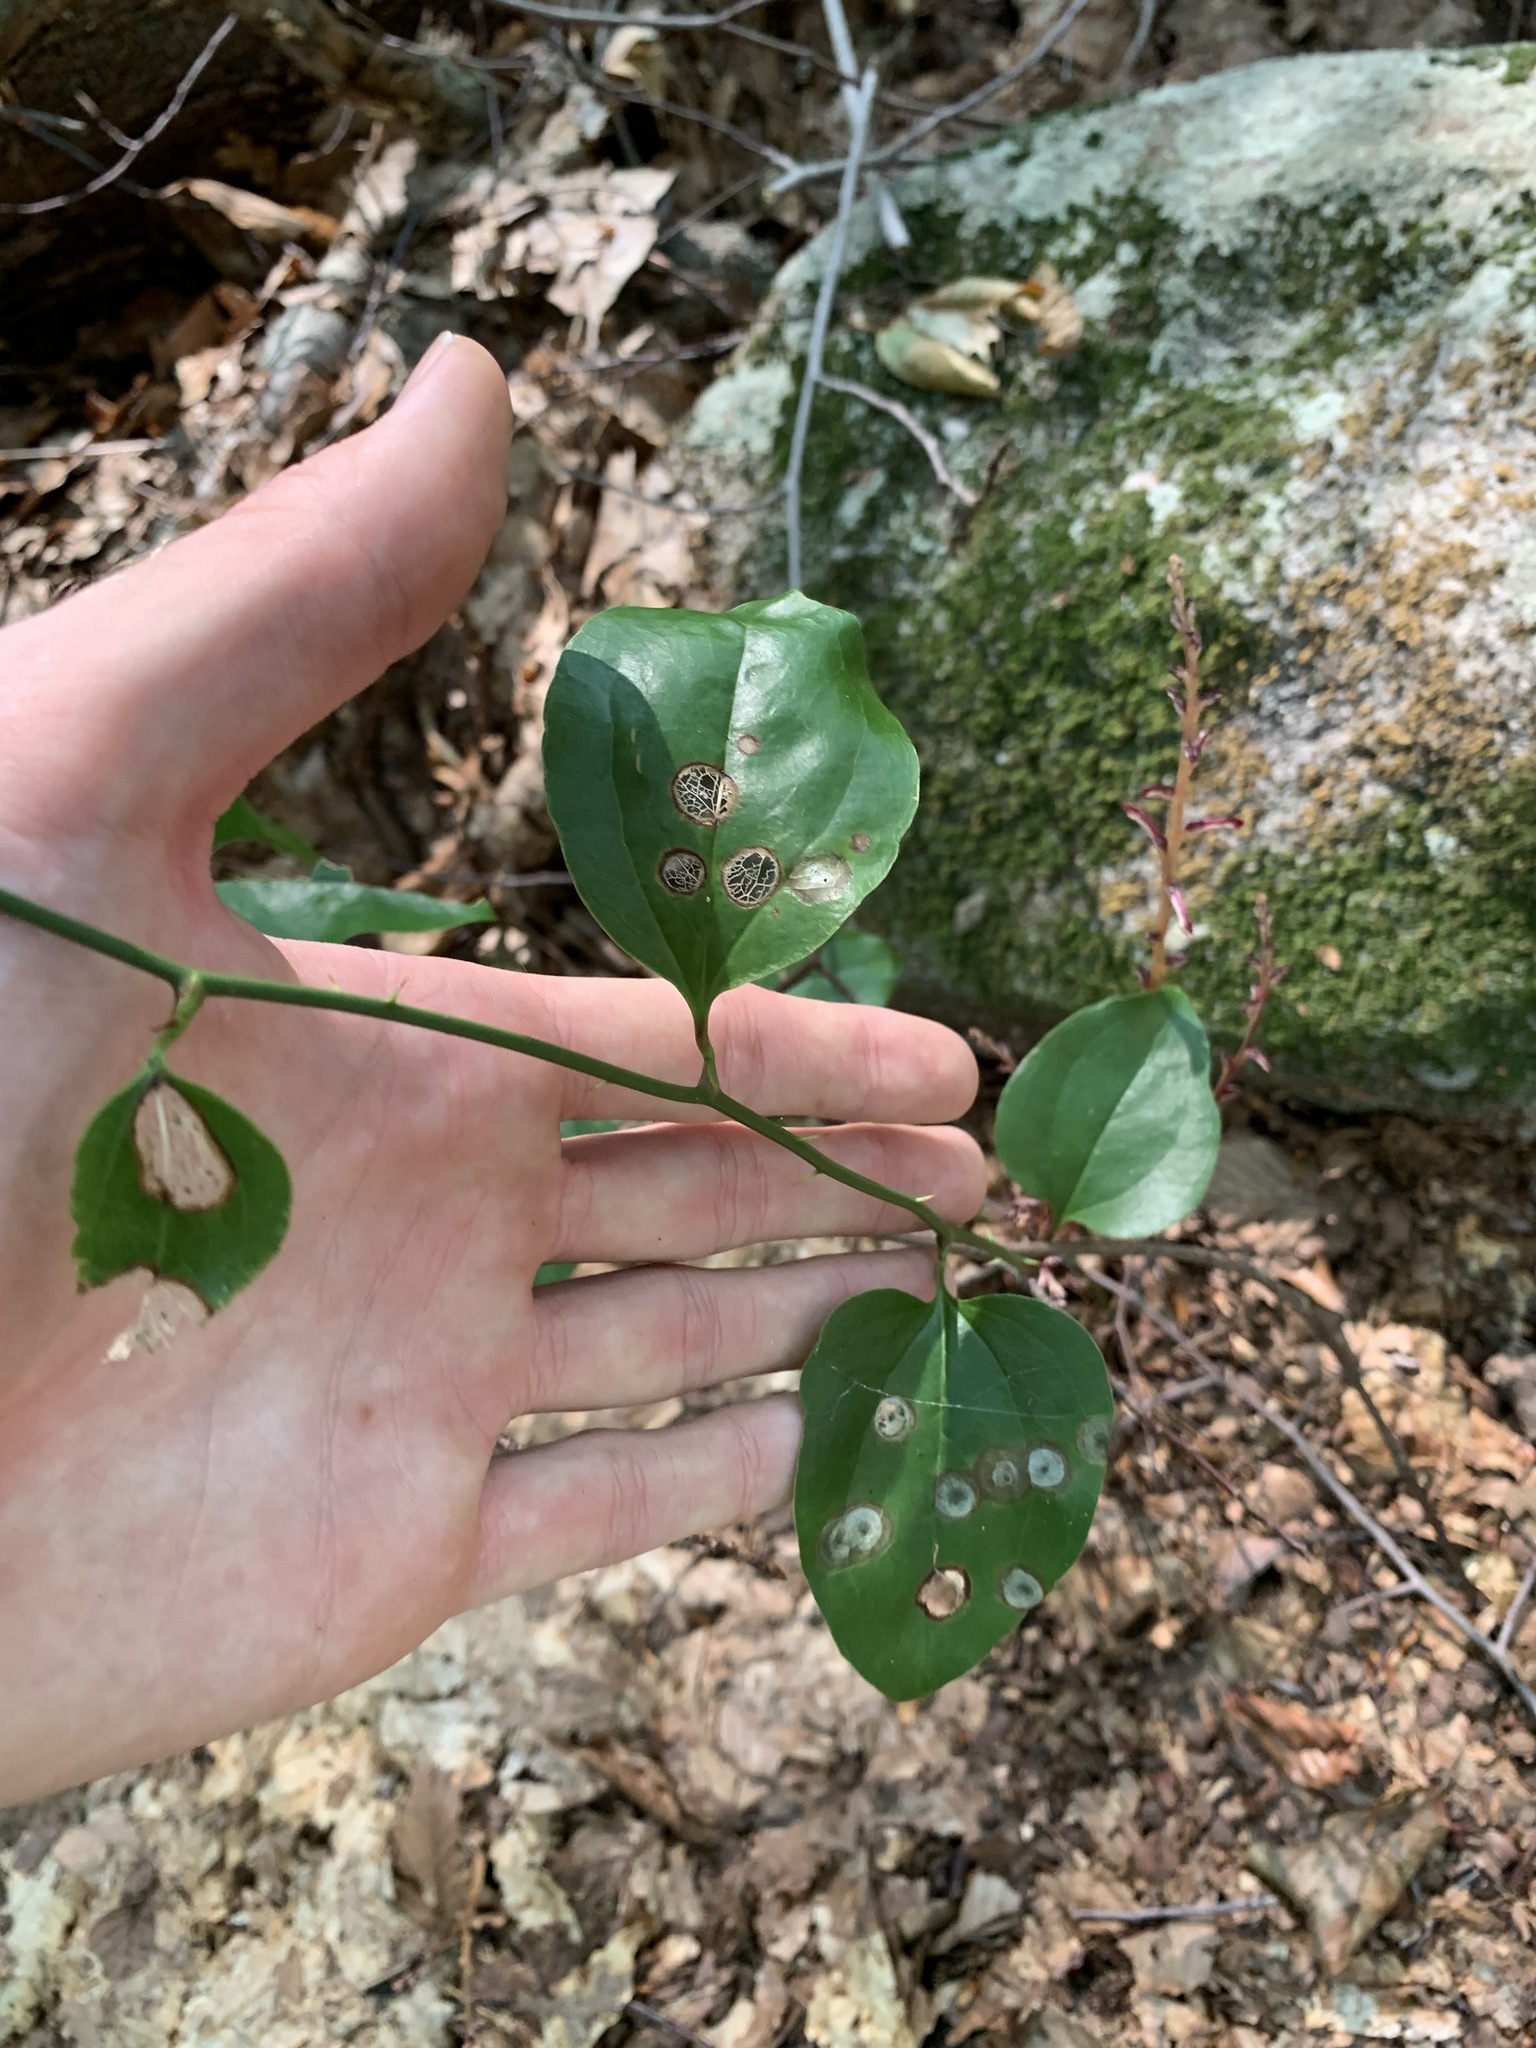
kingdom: Plantae
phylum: Tracheophyta
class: Liliopsida
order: Liliales
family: Smilacaceae
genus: Smilax
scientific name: Smilax rotundifolia
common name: Bullbriar
